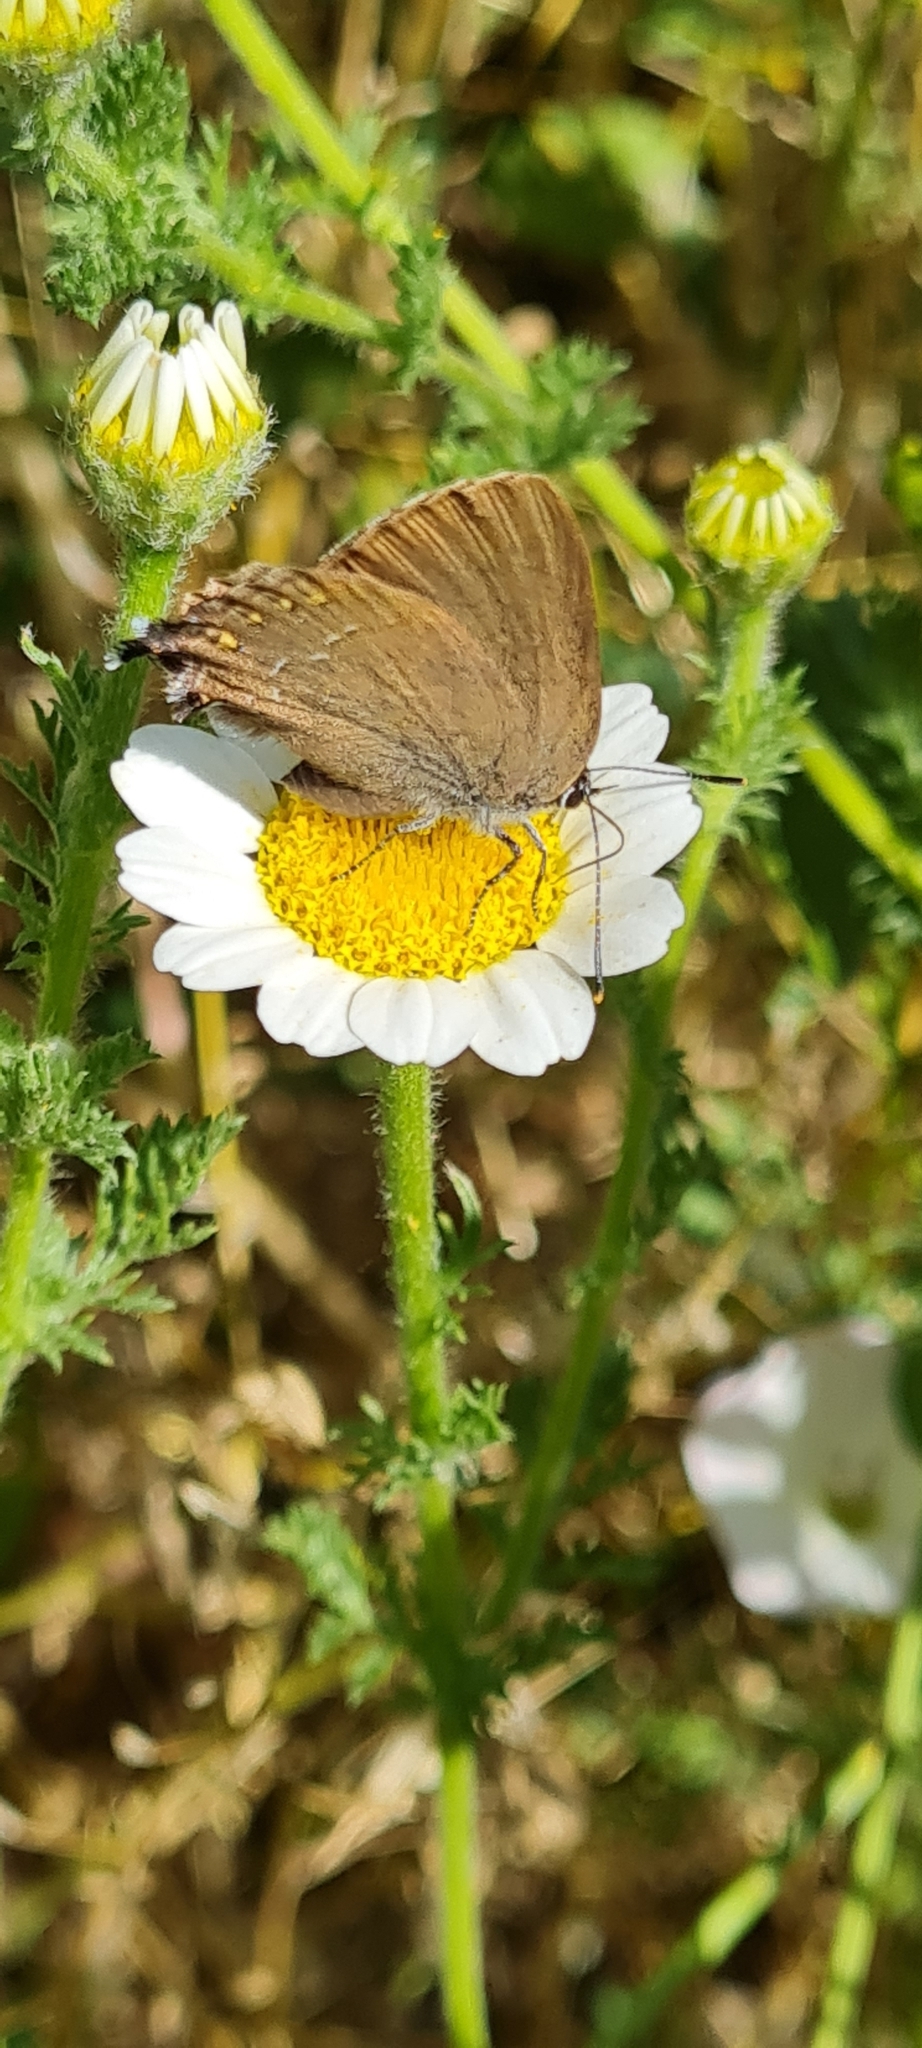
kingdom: Animalia
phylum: Arthropoda
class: Insecta
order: Lepidoptera
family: Lycaenidae
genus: Fixsenia
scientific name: Fixsenia esculi
